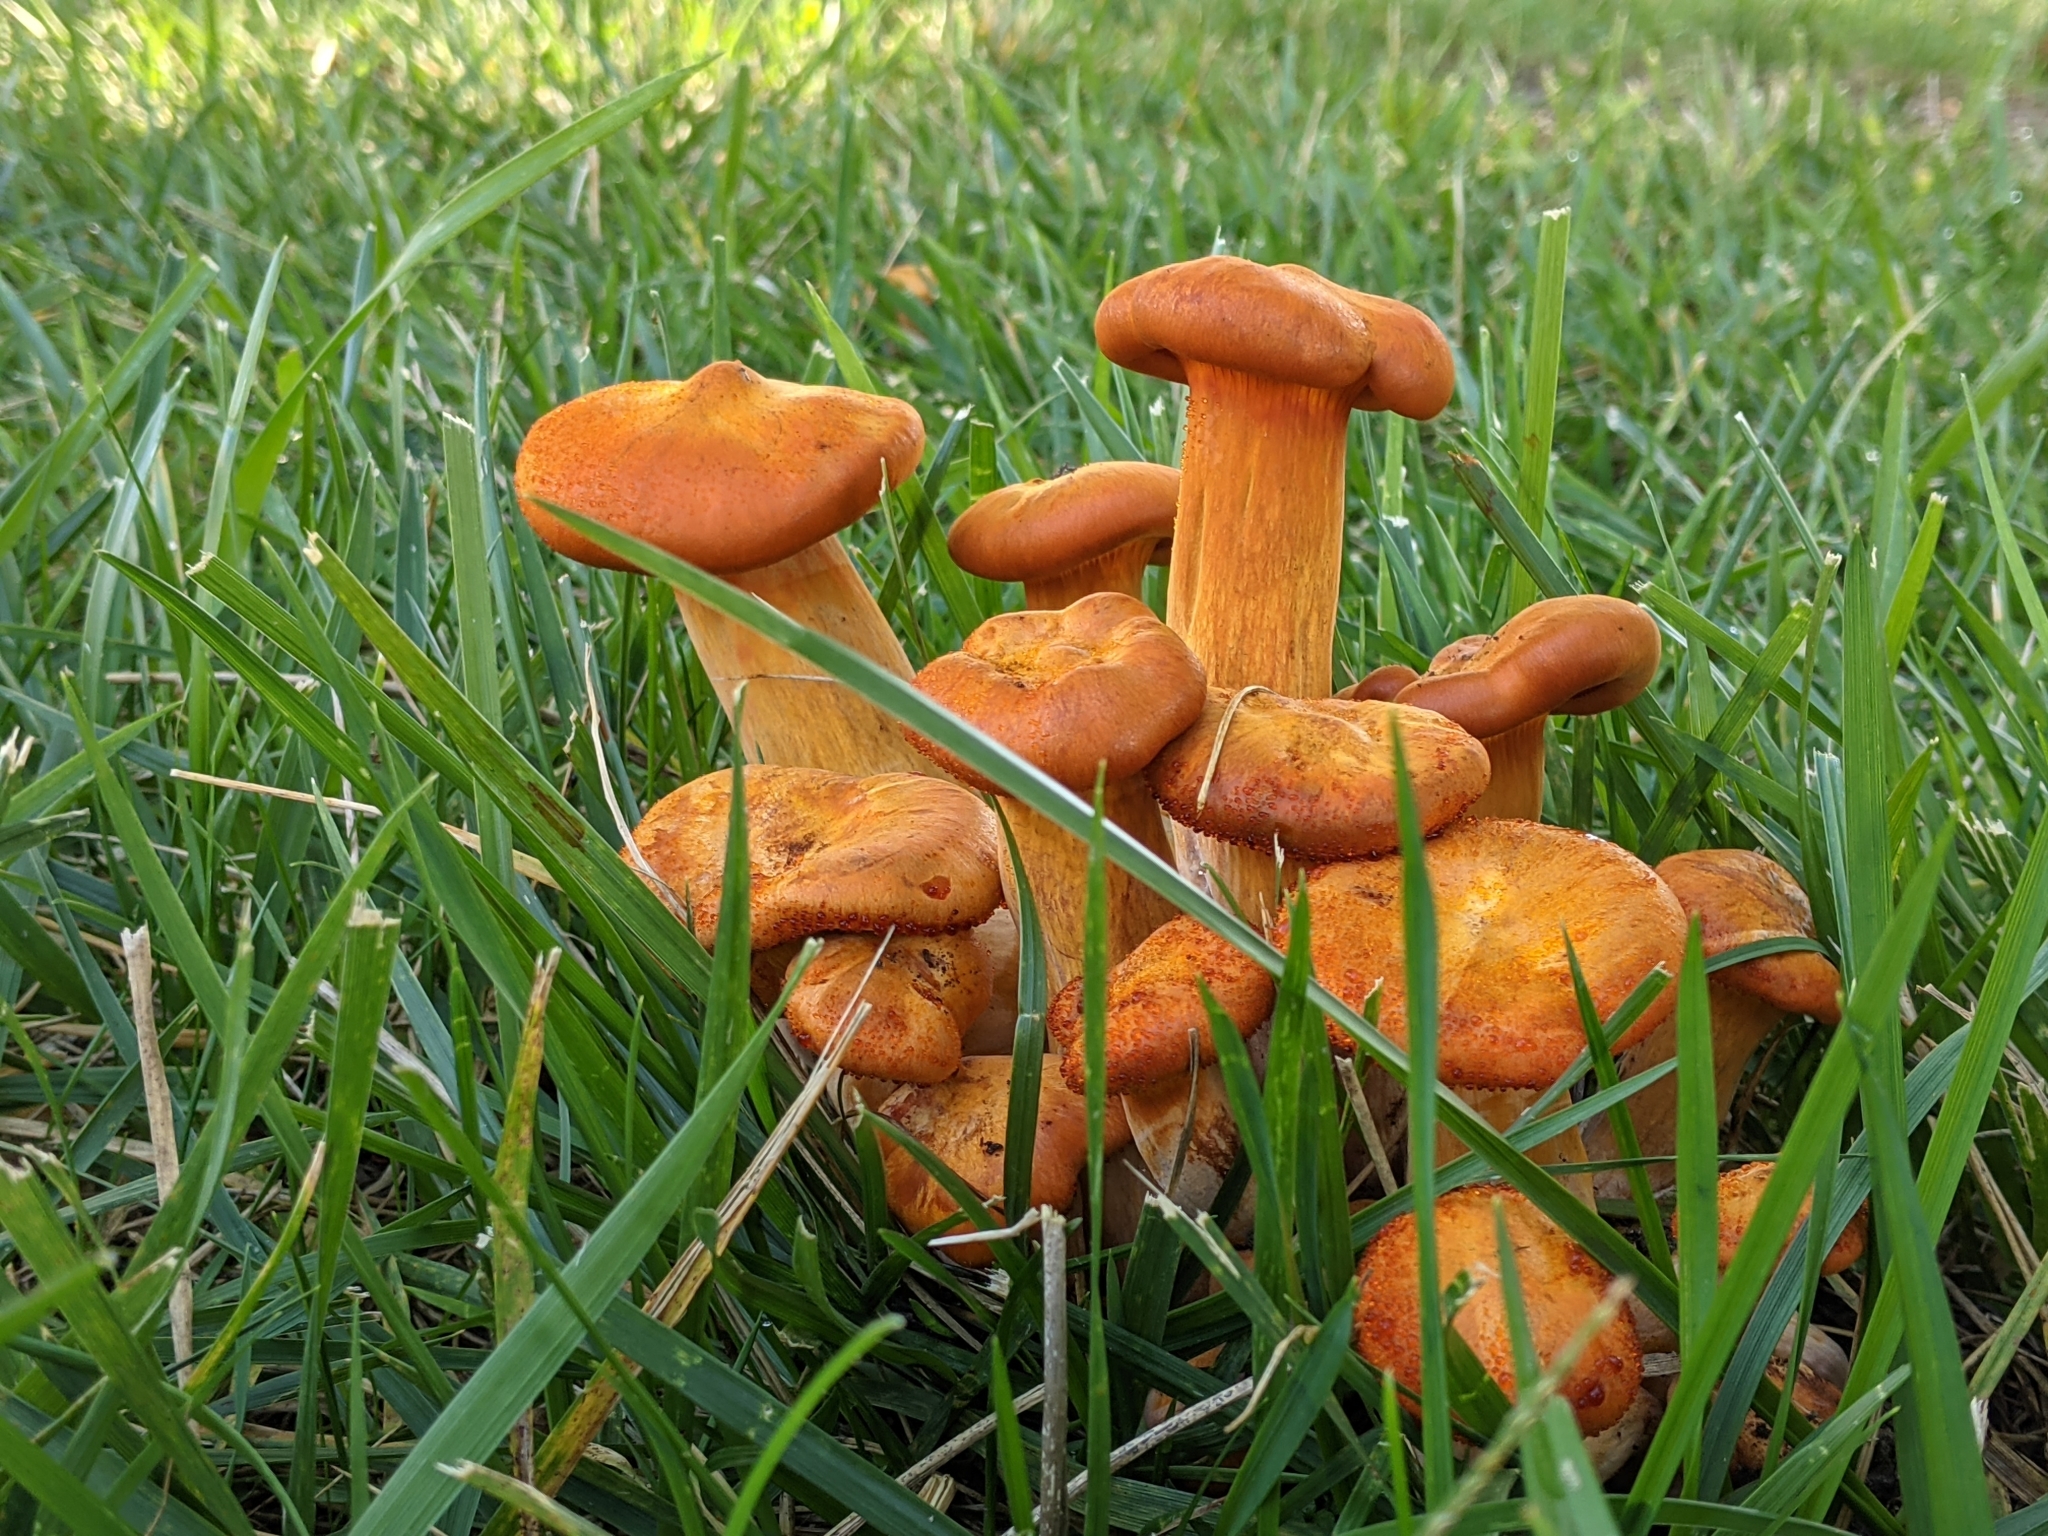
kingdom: Fungi
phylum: Basidiomycota
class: Agaricomycetes
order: Agaricales
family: Omphalotaceae
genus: Omphalotus
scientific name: Omphalotus illudens
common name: Jack o lantern
